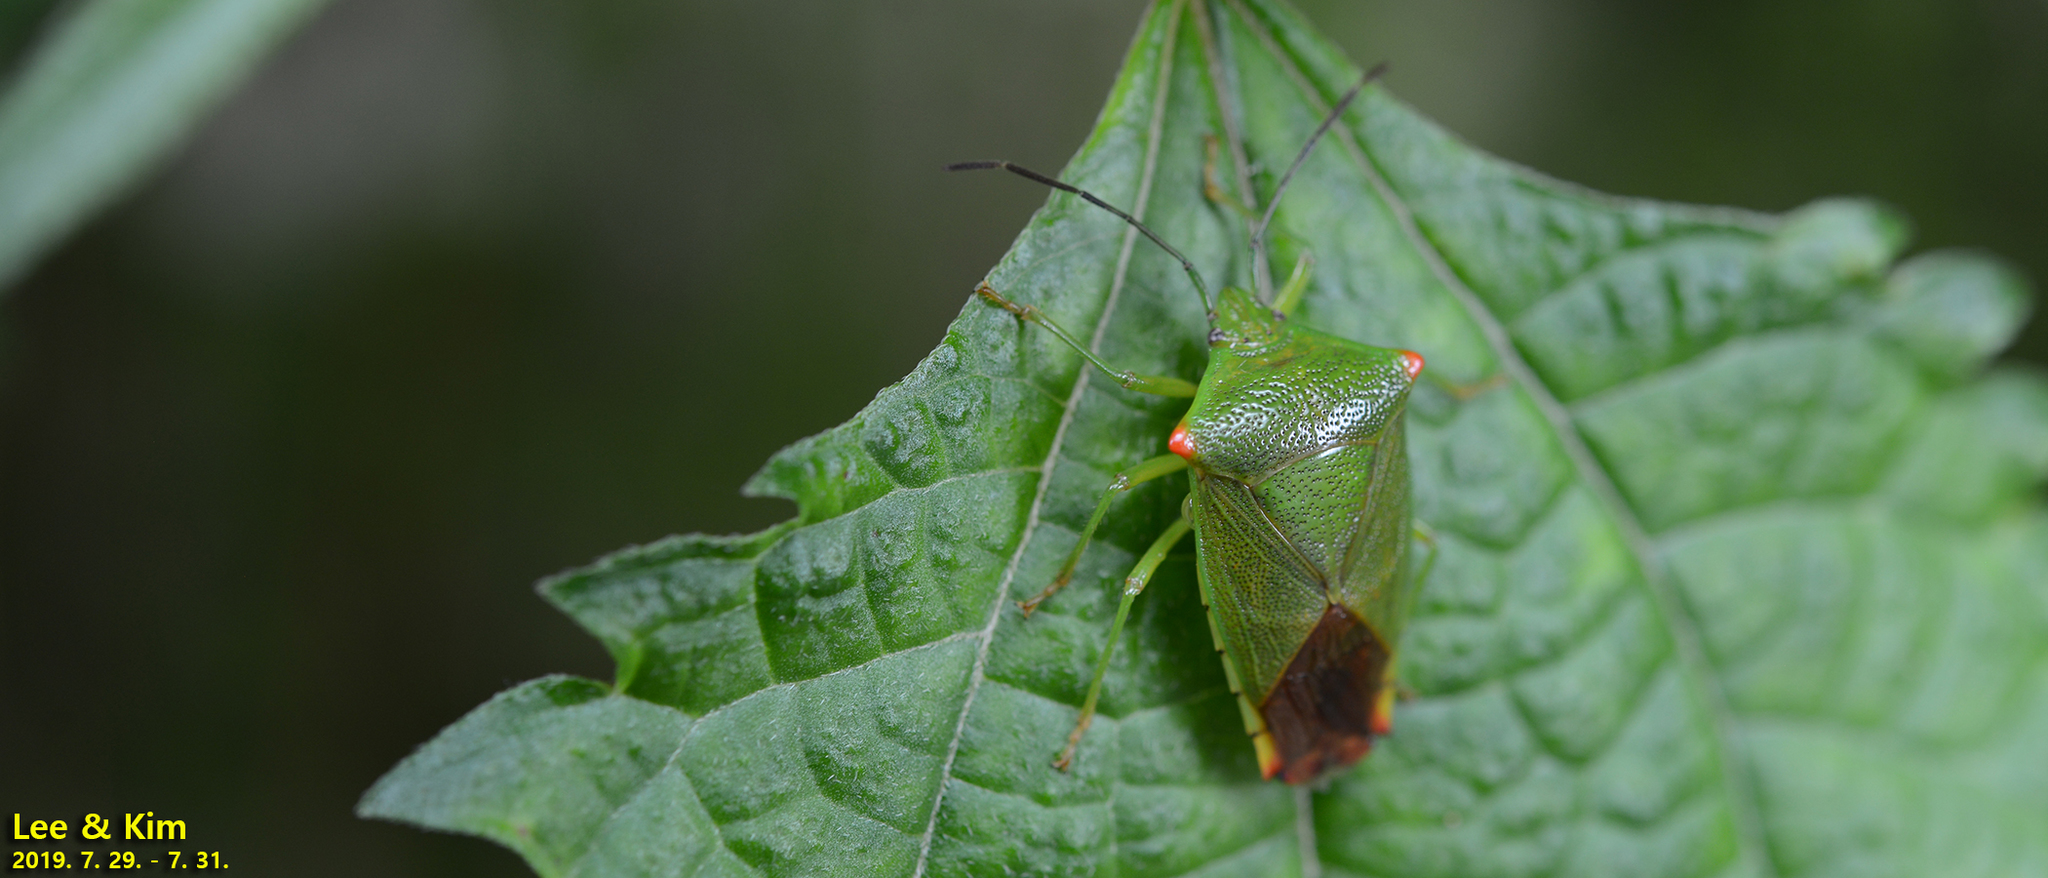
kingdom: Animalia
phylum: Arthropoda
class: Insecta
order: Hemiptera
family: Acanthosomatidae
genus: Acanthosoma
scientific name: Acanthosoma labiduroides
